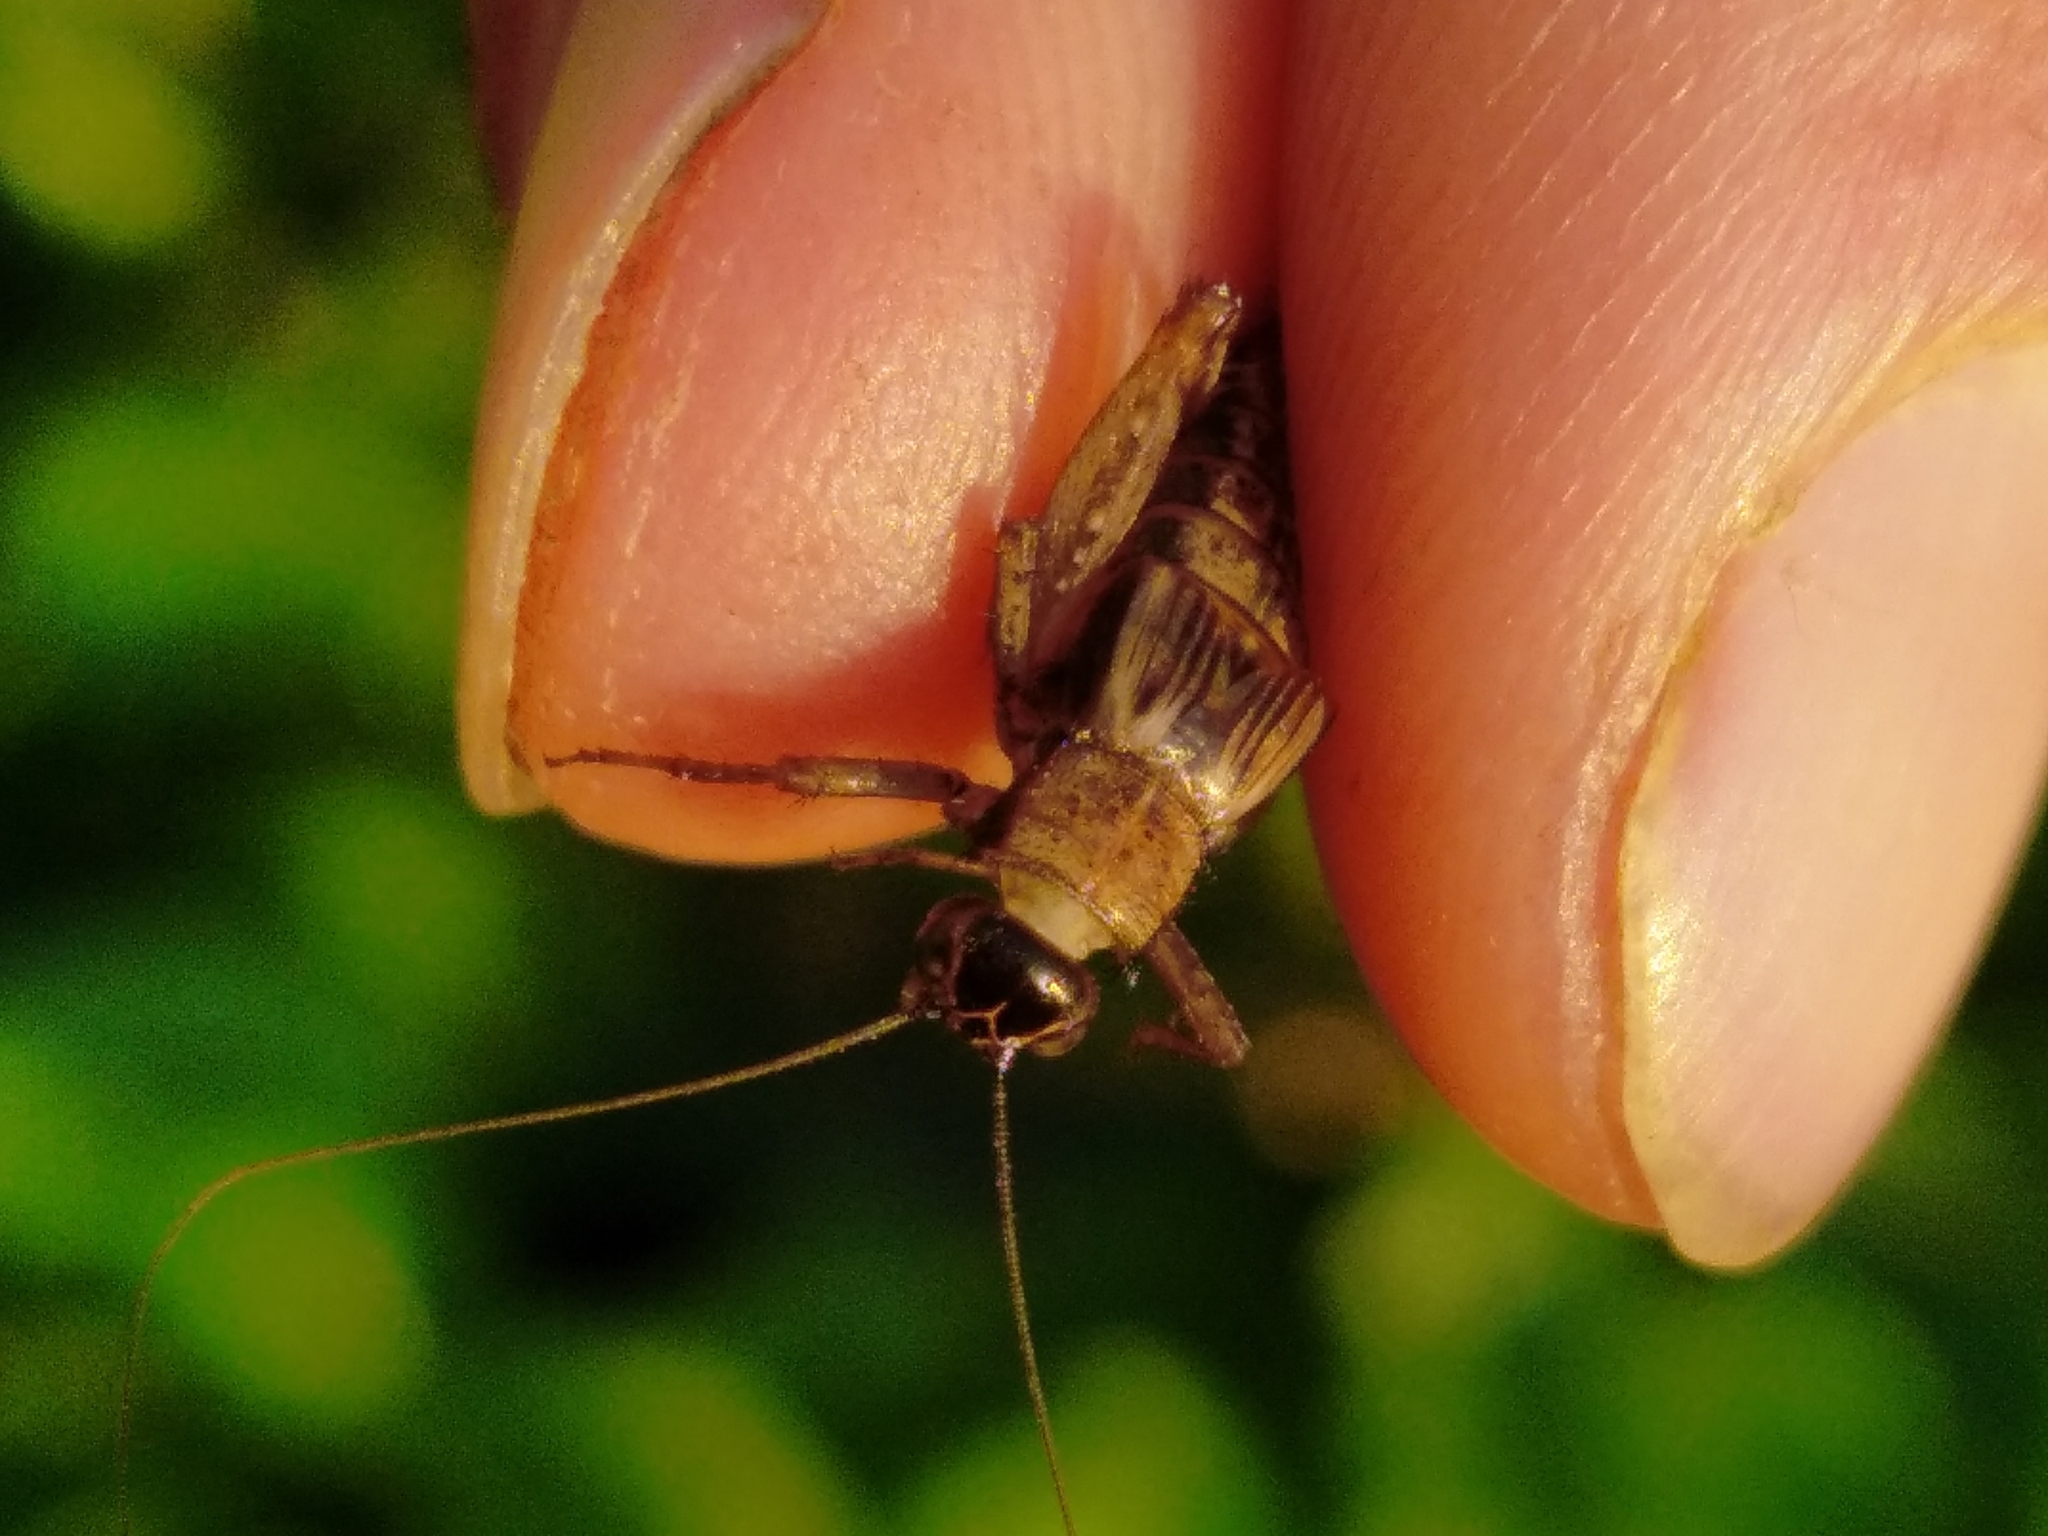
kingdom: Animalia
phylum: Arthropoda
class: Insecta
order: Orthoptera
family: Trigonidiidae
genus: Nemobius
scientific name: Nemobius sylvestris
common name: Wood-cricket
